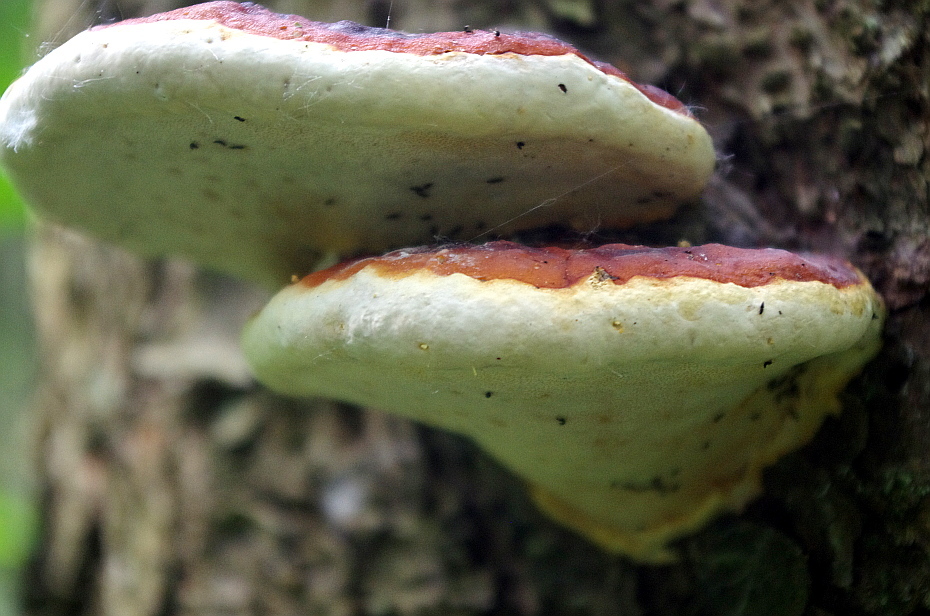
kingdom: Fungi
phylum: Basidiomycota
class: Agaricomycetes
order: Polyporales
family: Fomitopsidaceae
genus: Fomitopsis
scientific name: Fomitopsis pinicola
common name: Red-belted bracket
